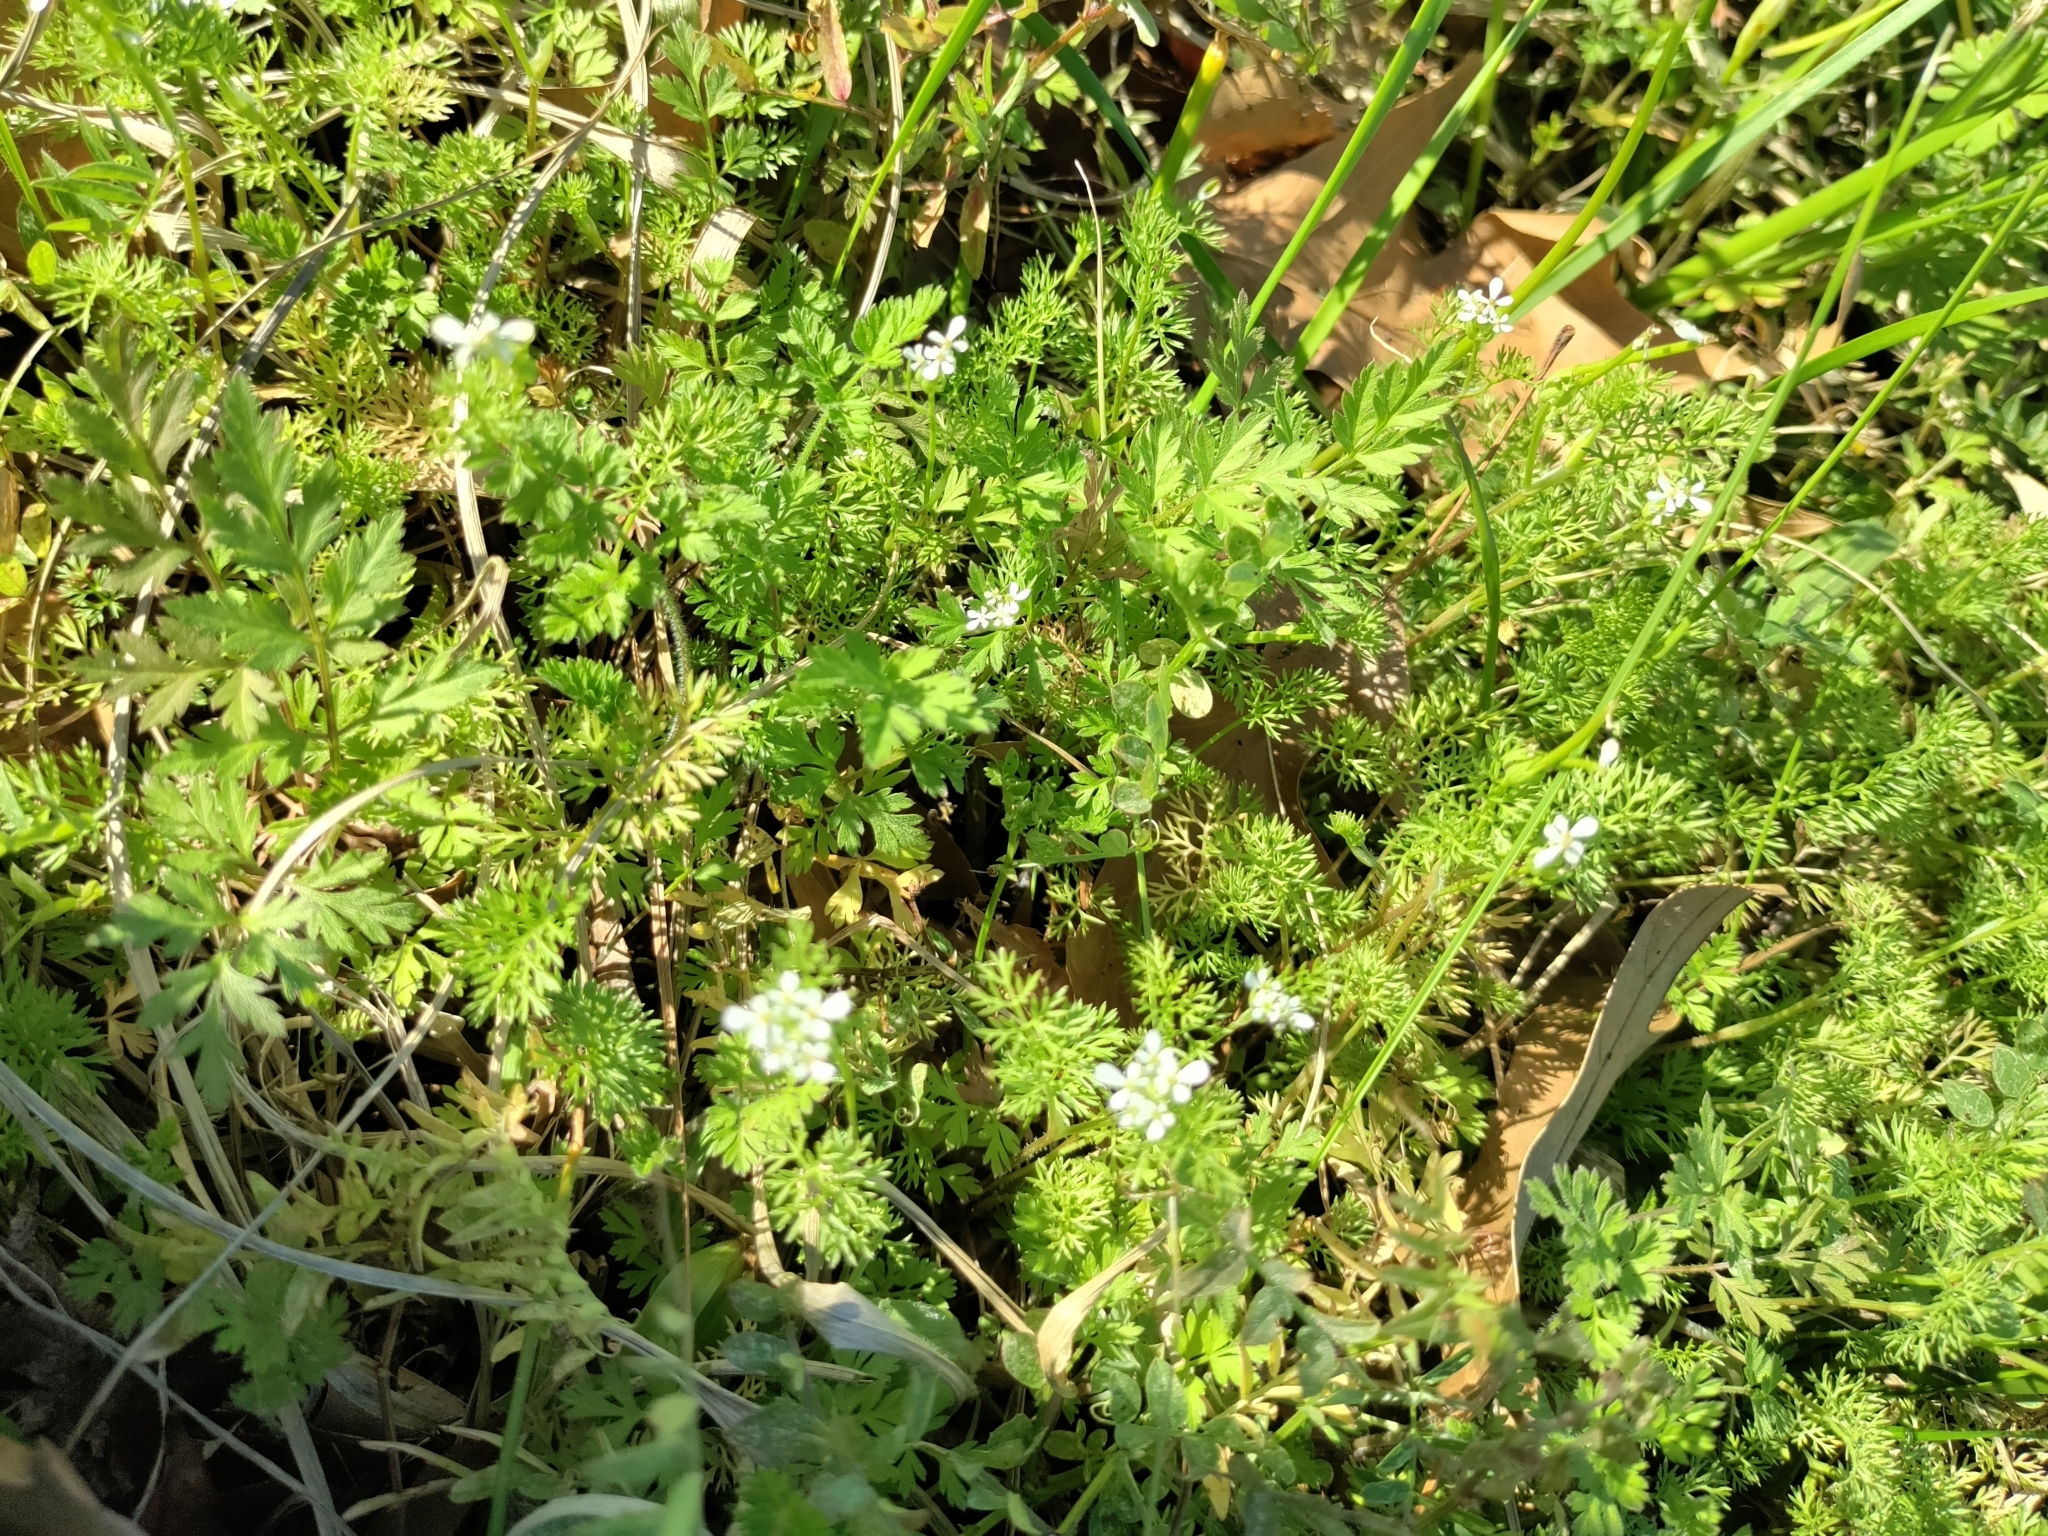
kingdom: Plantae
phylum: Tracheophyta
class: Magnoliopsida
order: Apiales
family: Apiaceae
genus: Scandix
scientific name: Scandix pecten-veneris
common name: Shepherd's-needle
